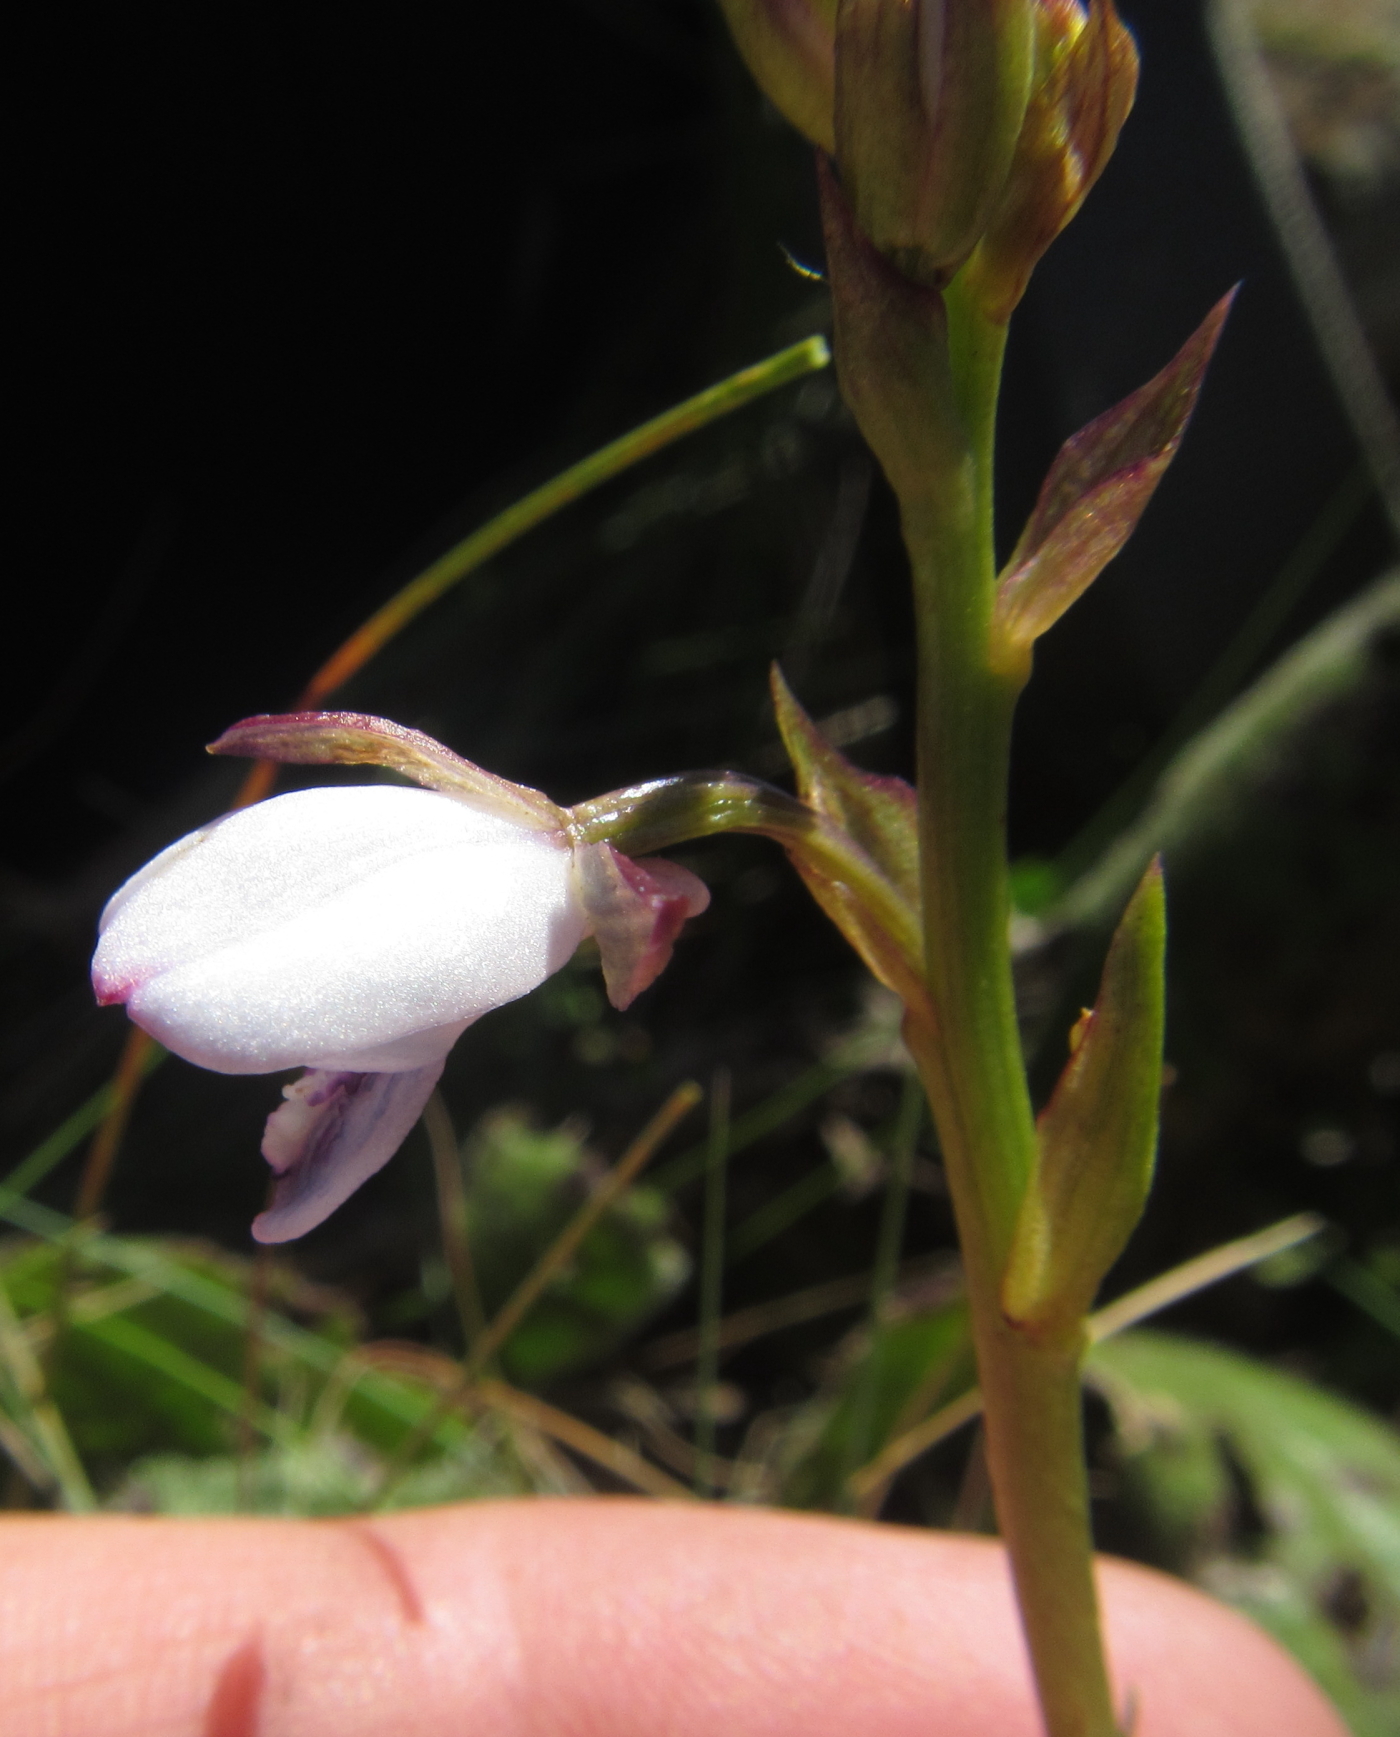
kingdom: Plantae
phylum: Tracheophyta
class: Liliopsida
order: Asparagales
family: Orchidaceae
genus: Eulophia
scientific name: Eulophia zeyheriana
